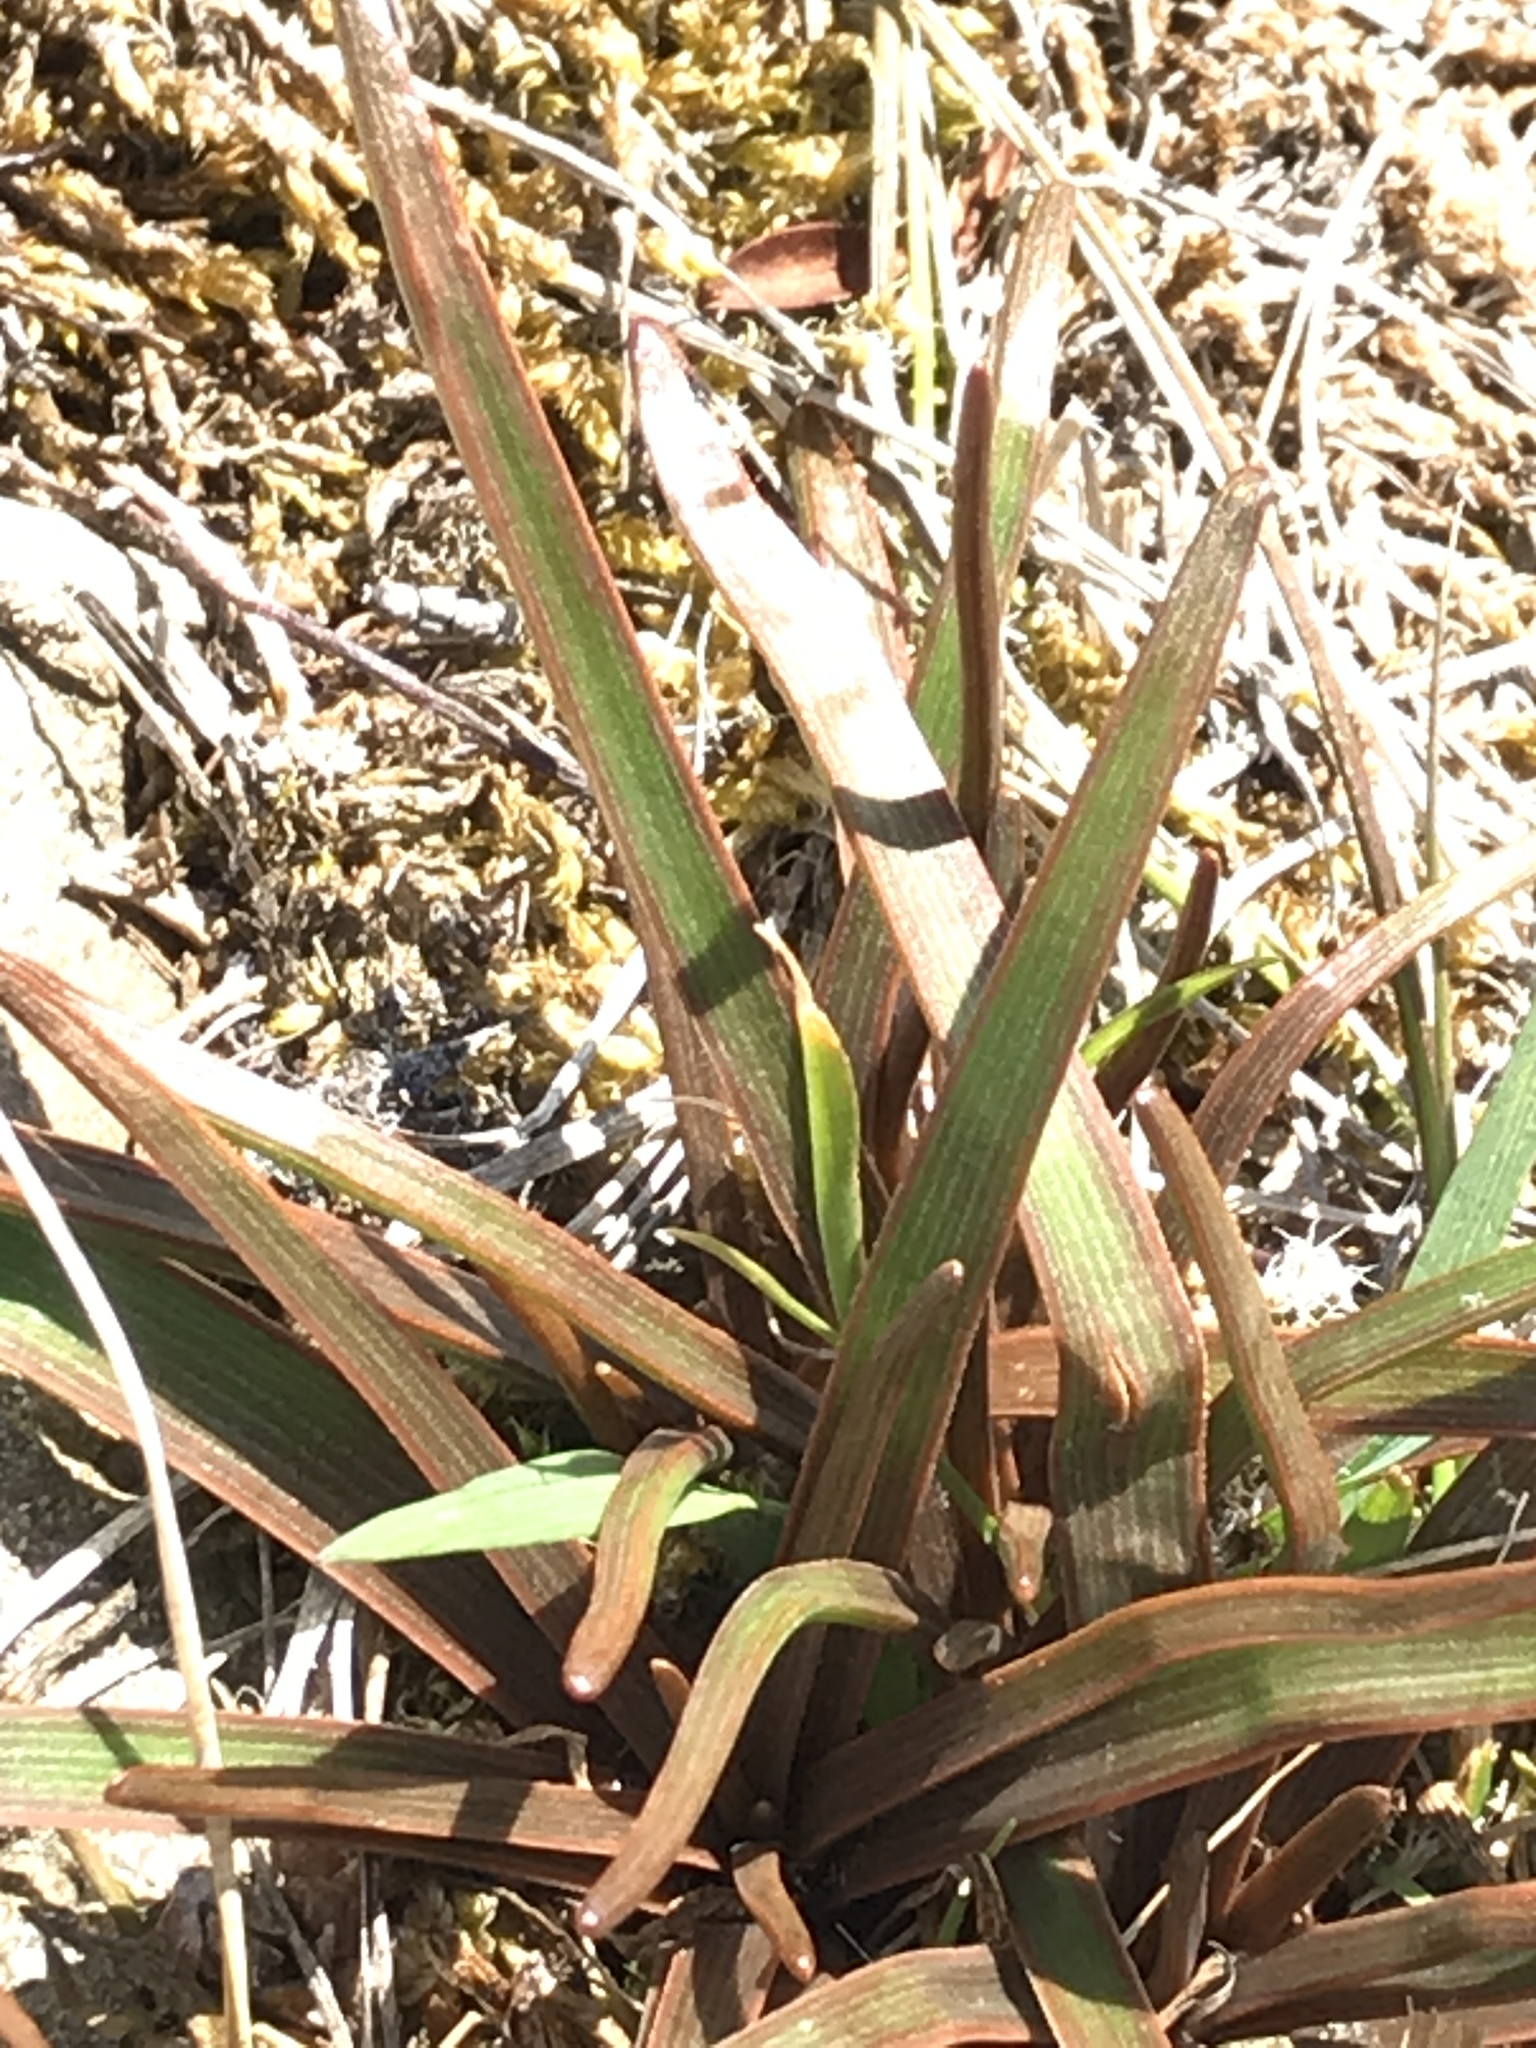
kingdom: Plantae
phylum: Tracheophyta
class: Liliopsida
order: Asparagales
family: Asphodelaceae
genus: Bulbinella
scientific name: Bulbinella angustifolia
